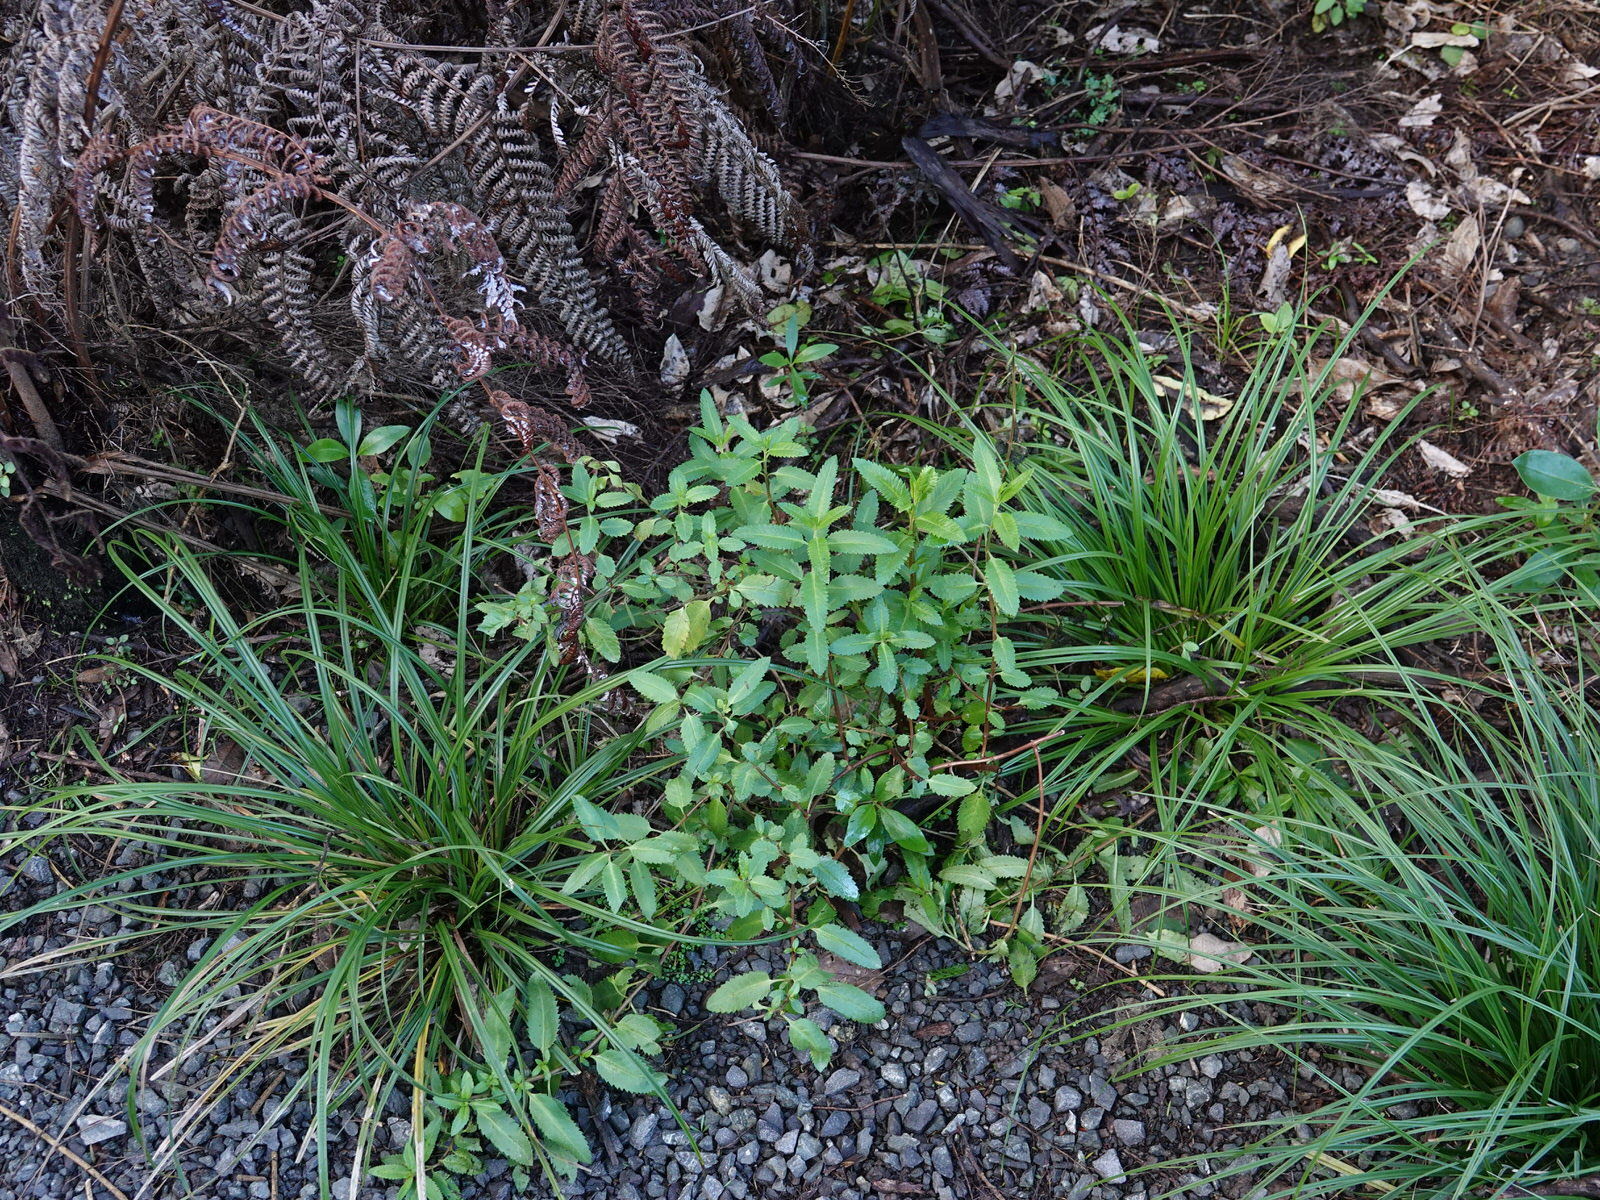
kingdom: Plantae
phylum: Tracheophyta
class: Magnoliopsida
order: Saxifragales
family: Haloragaceae
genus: Haloragis
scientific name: Haloragis erecta
